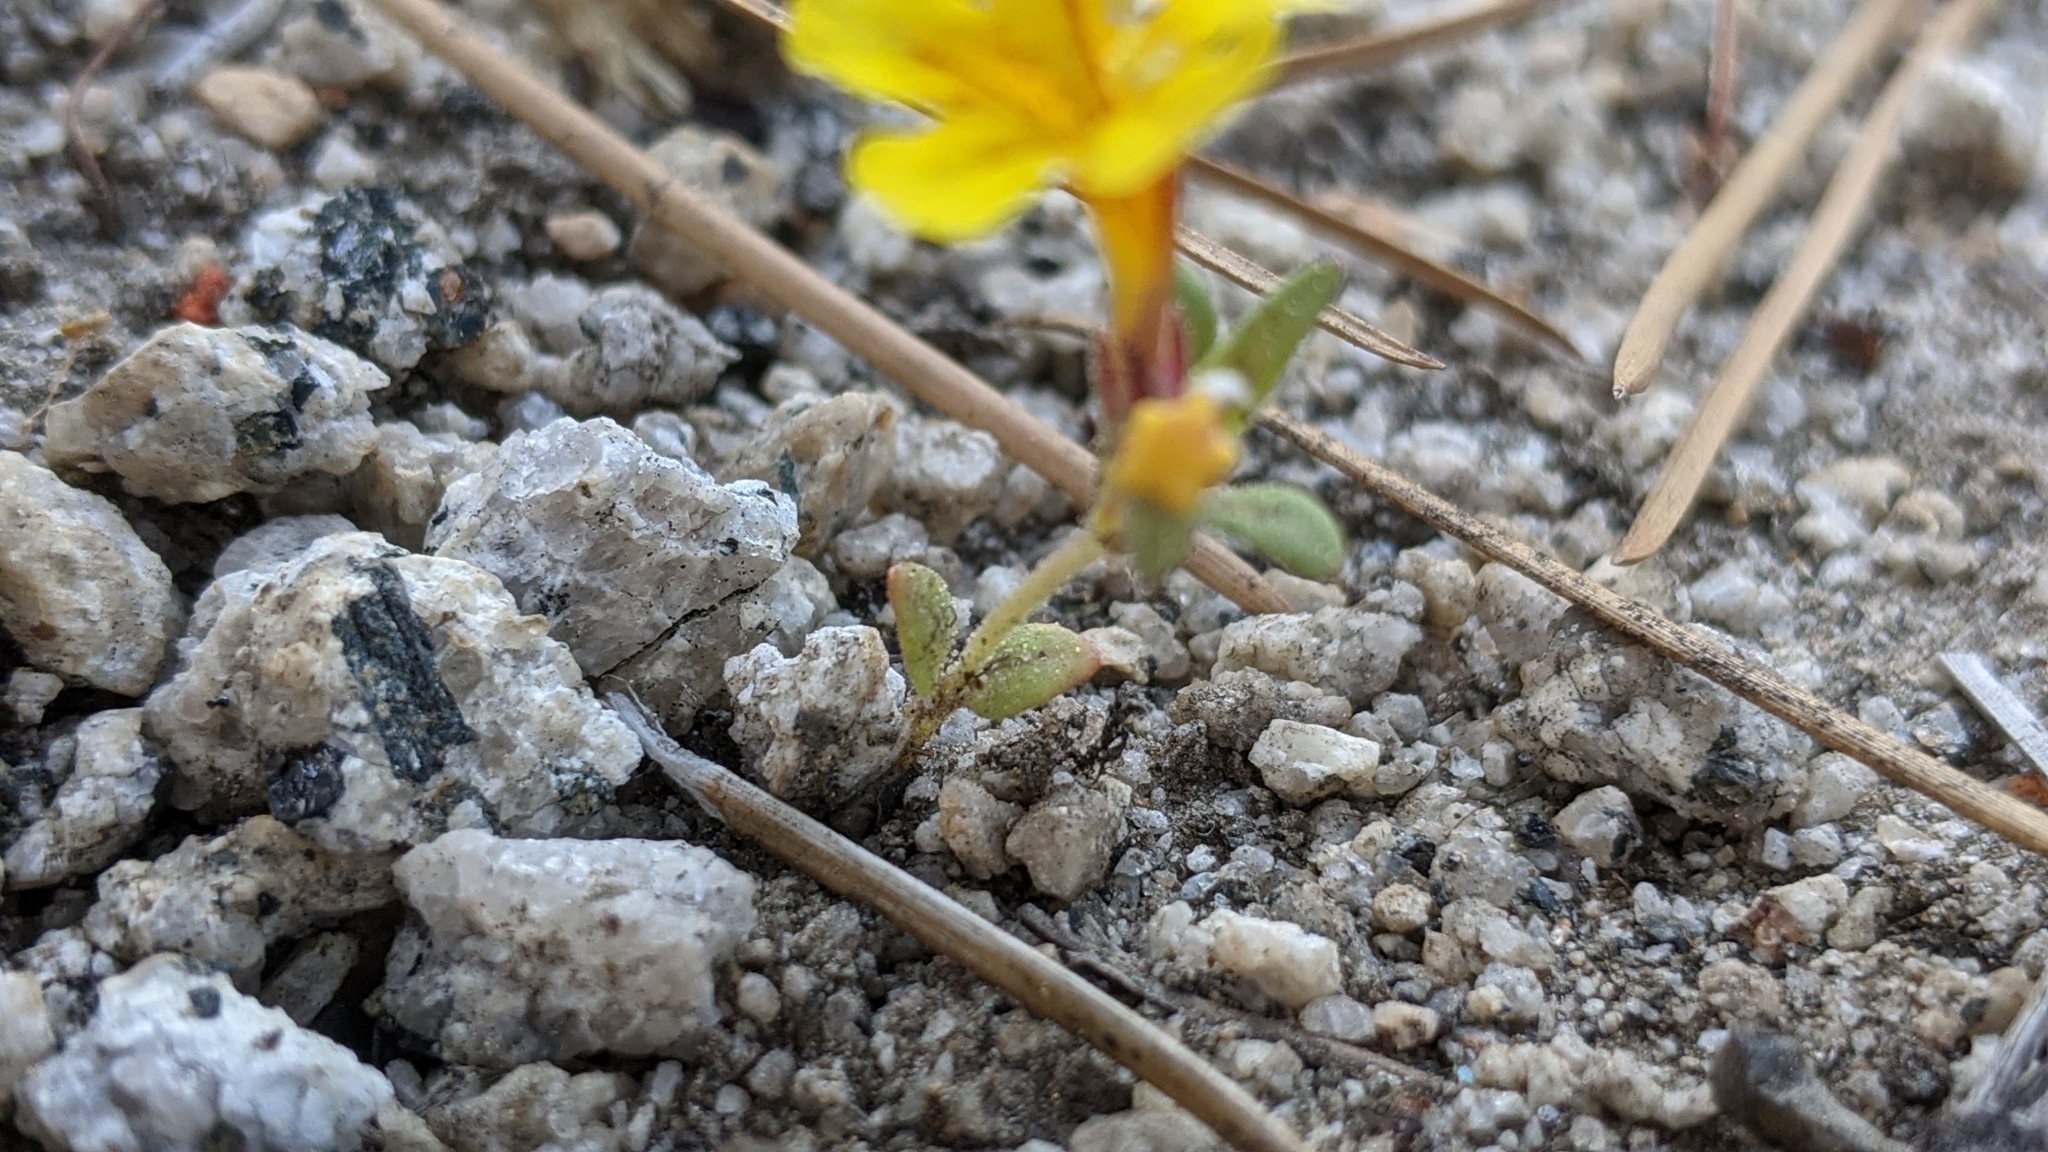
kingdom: Plantae
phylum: Tracheophyta
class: Magnoliopsida
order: Lamiales
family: Phrymaceae
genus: Diplacus
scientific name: Diplacus mephiticus
